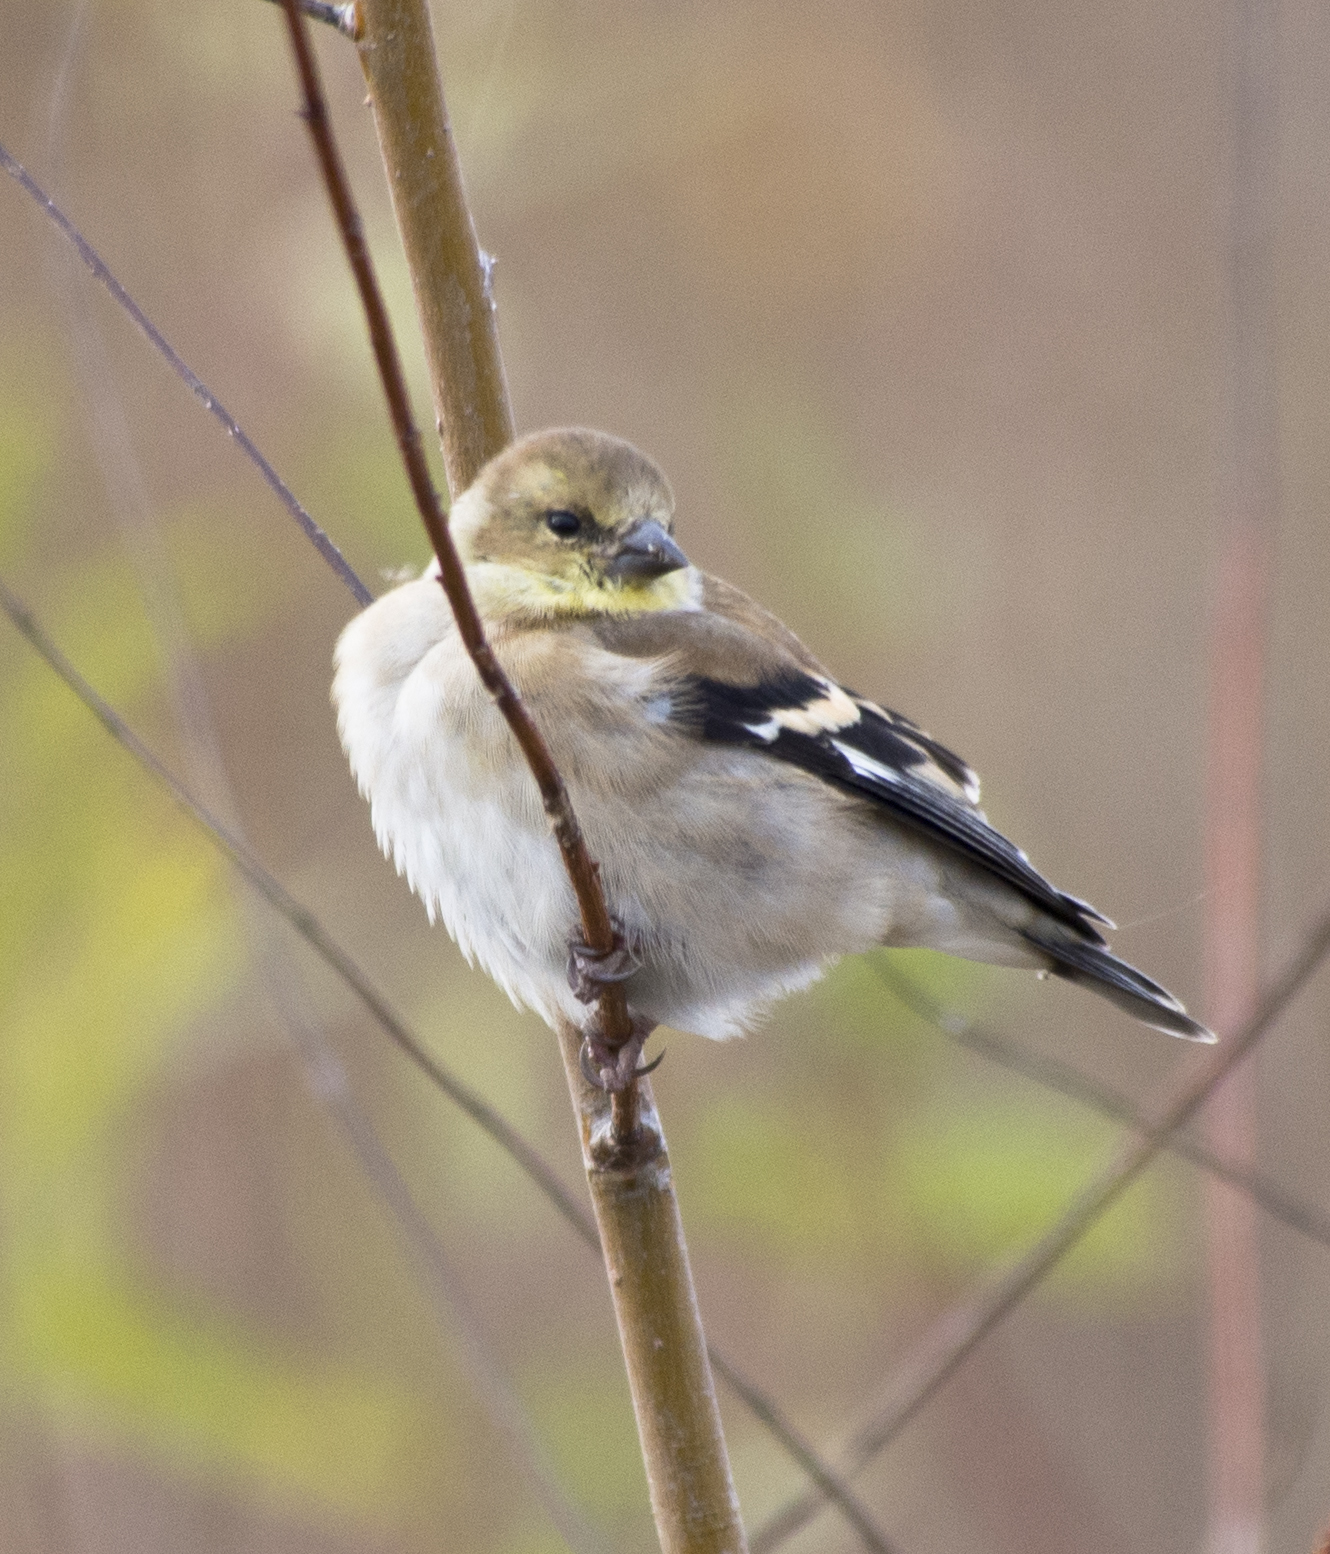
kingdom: Animalia
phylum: Chordata
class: Aves
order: Passeriformes
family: Fringillidae
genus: Spinus
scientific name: Spinus tristis
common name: American goldfinch
